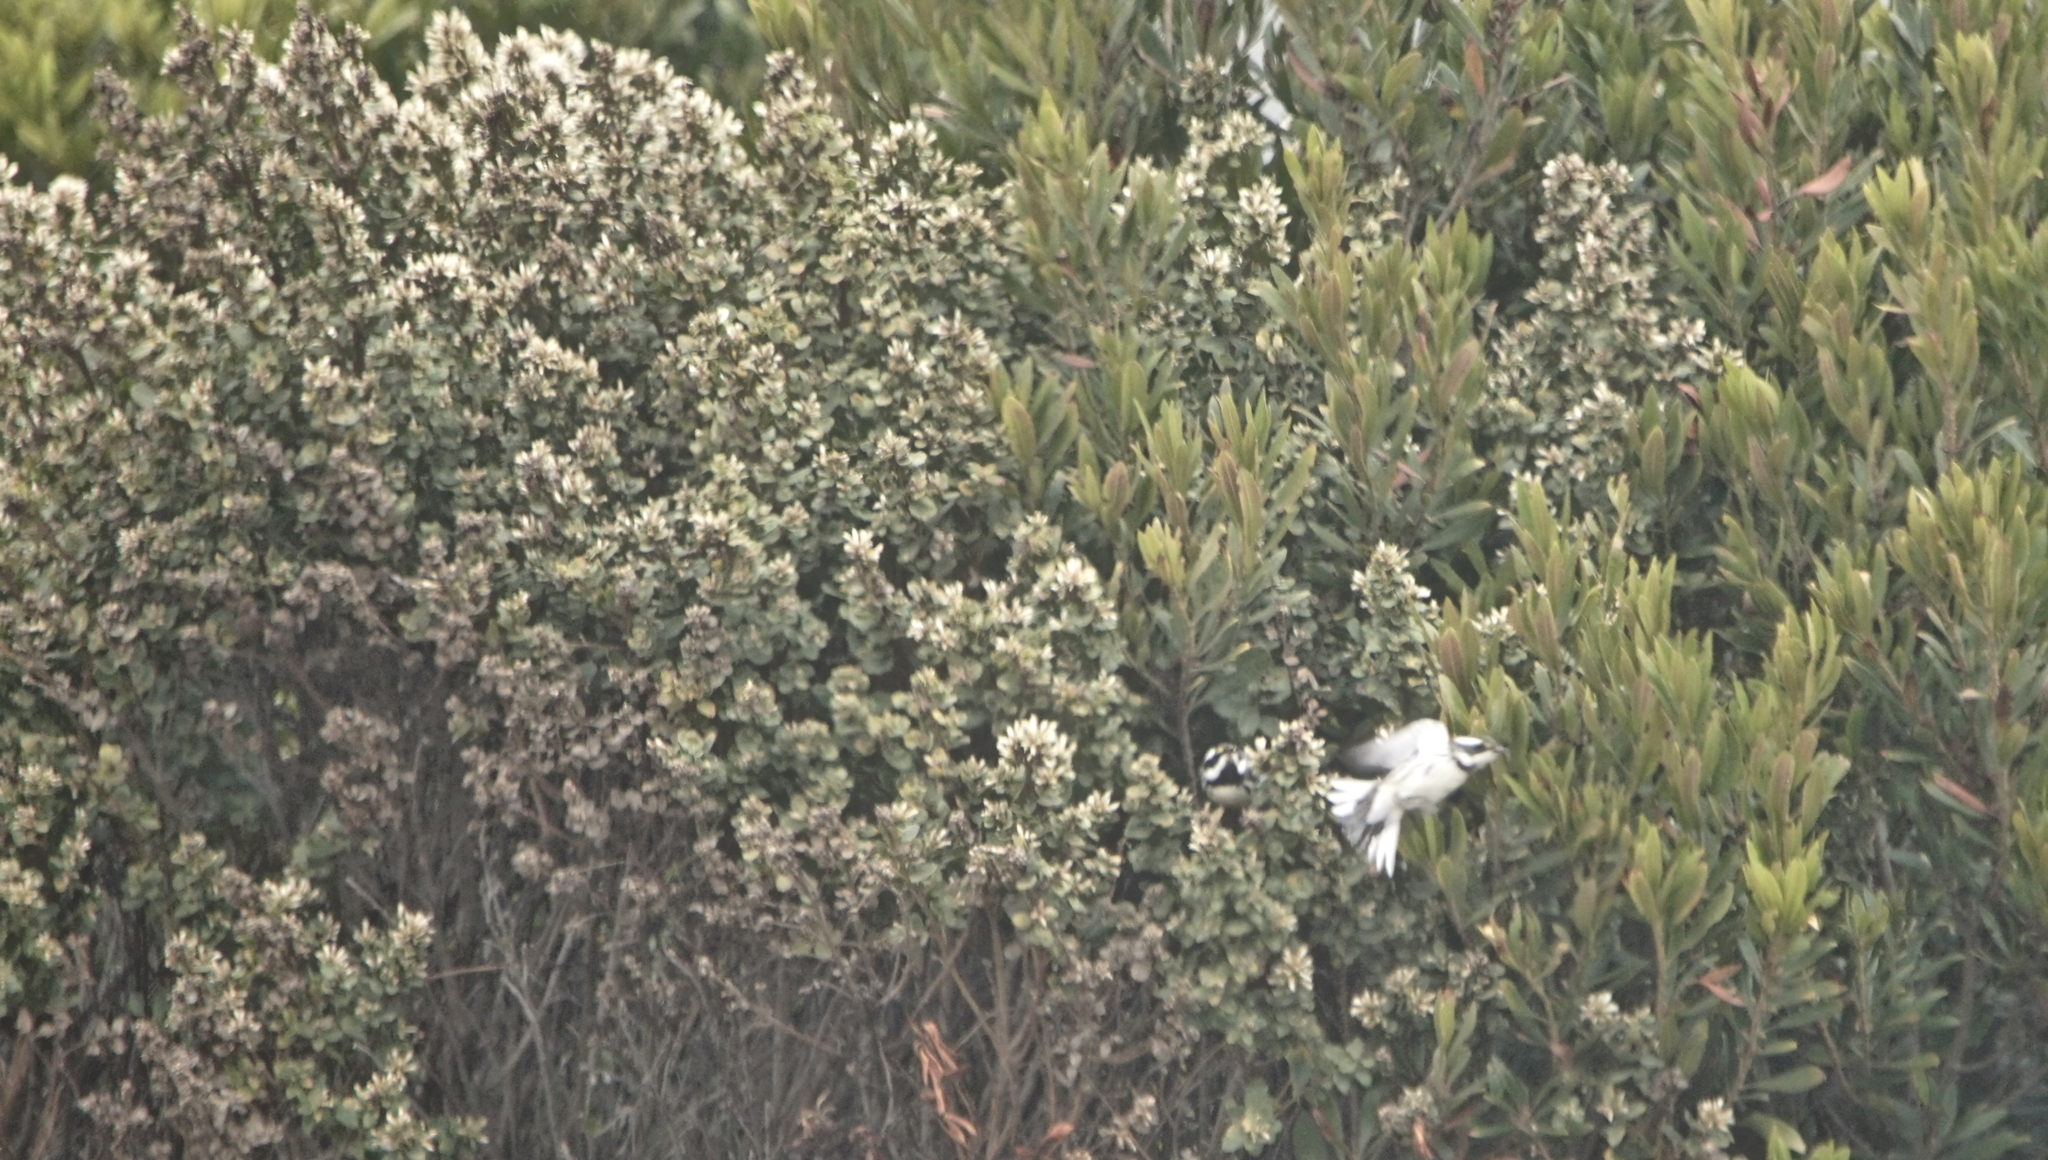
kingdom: Animalia
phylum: Chordata
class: Aves
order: Passeriformes
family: Parulidae
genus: Setophaga
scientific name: Setophaga nigrescens
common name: Black-throated gray warbler
